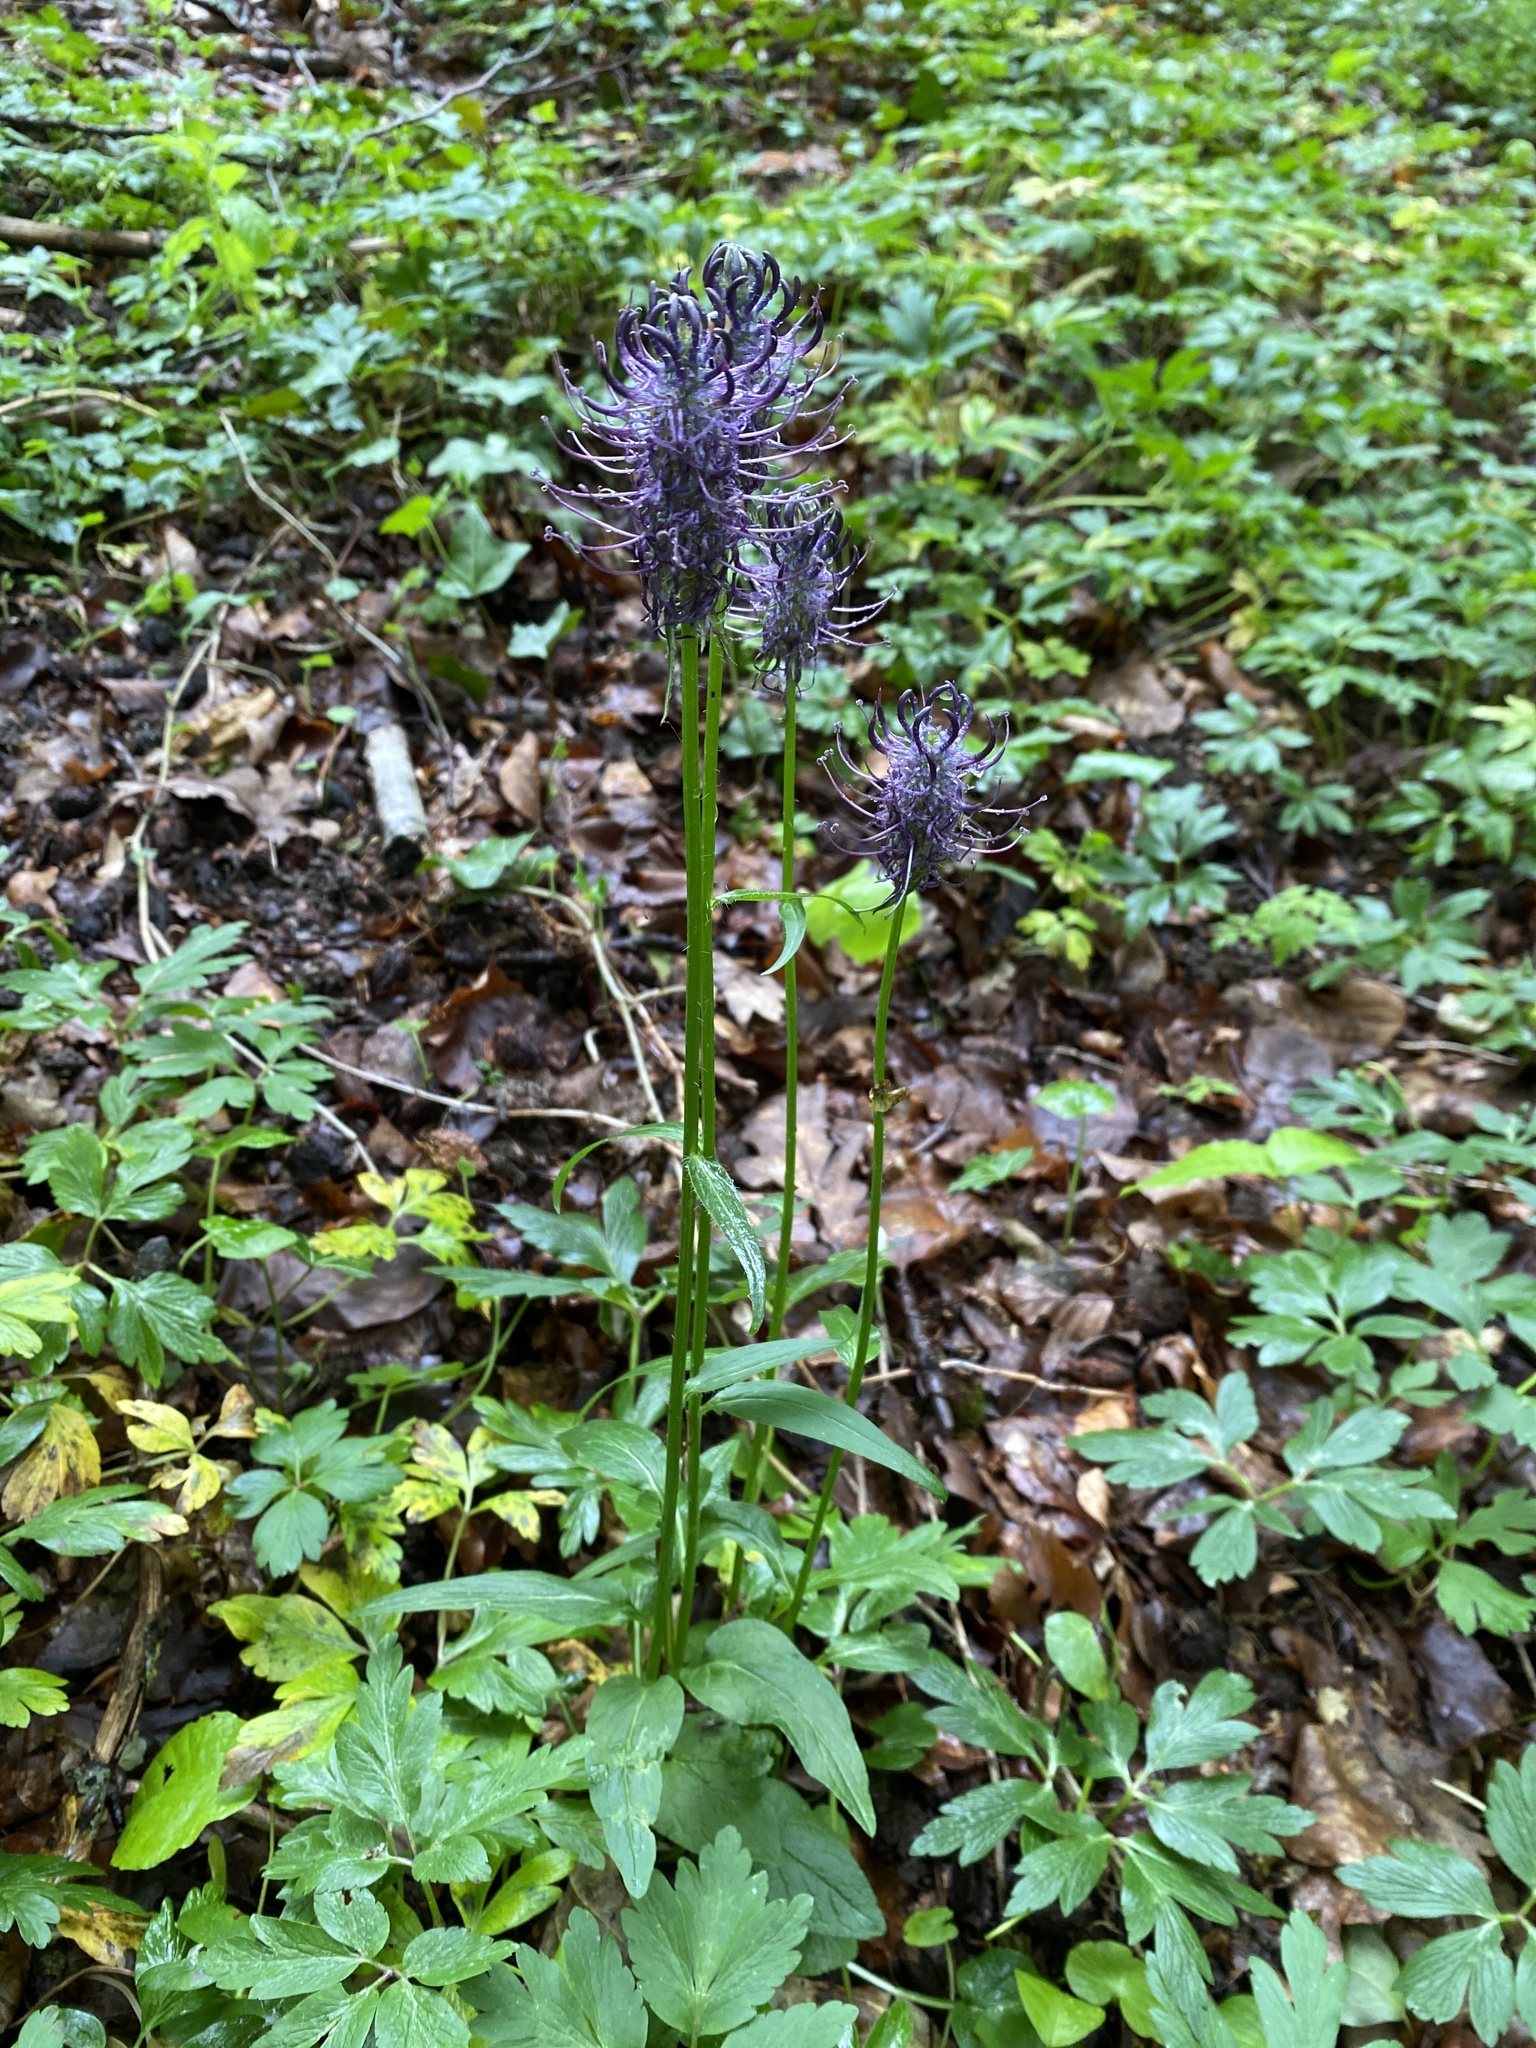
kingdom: Plantae
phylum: Tracheophyta
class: Magnoliopsida
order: Asterales
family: Campanulaceae
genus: Phyteuma
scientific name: Phyteuma nigrum
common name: Black rampion
